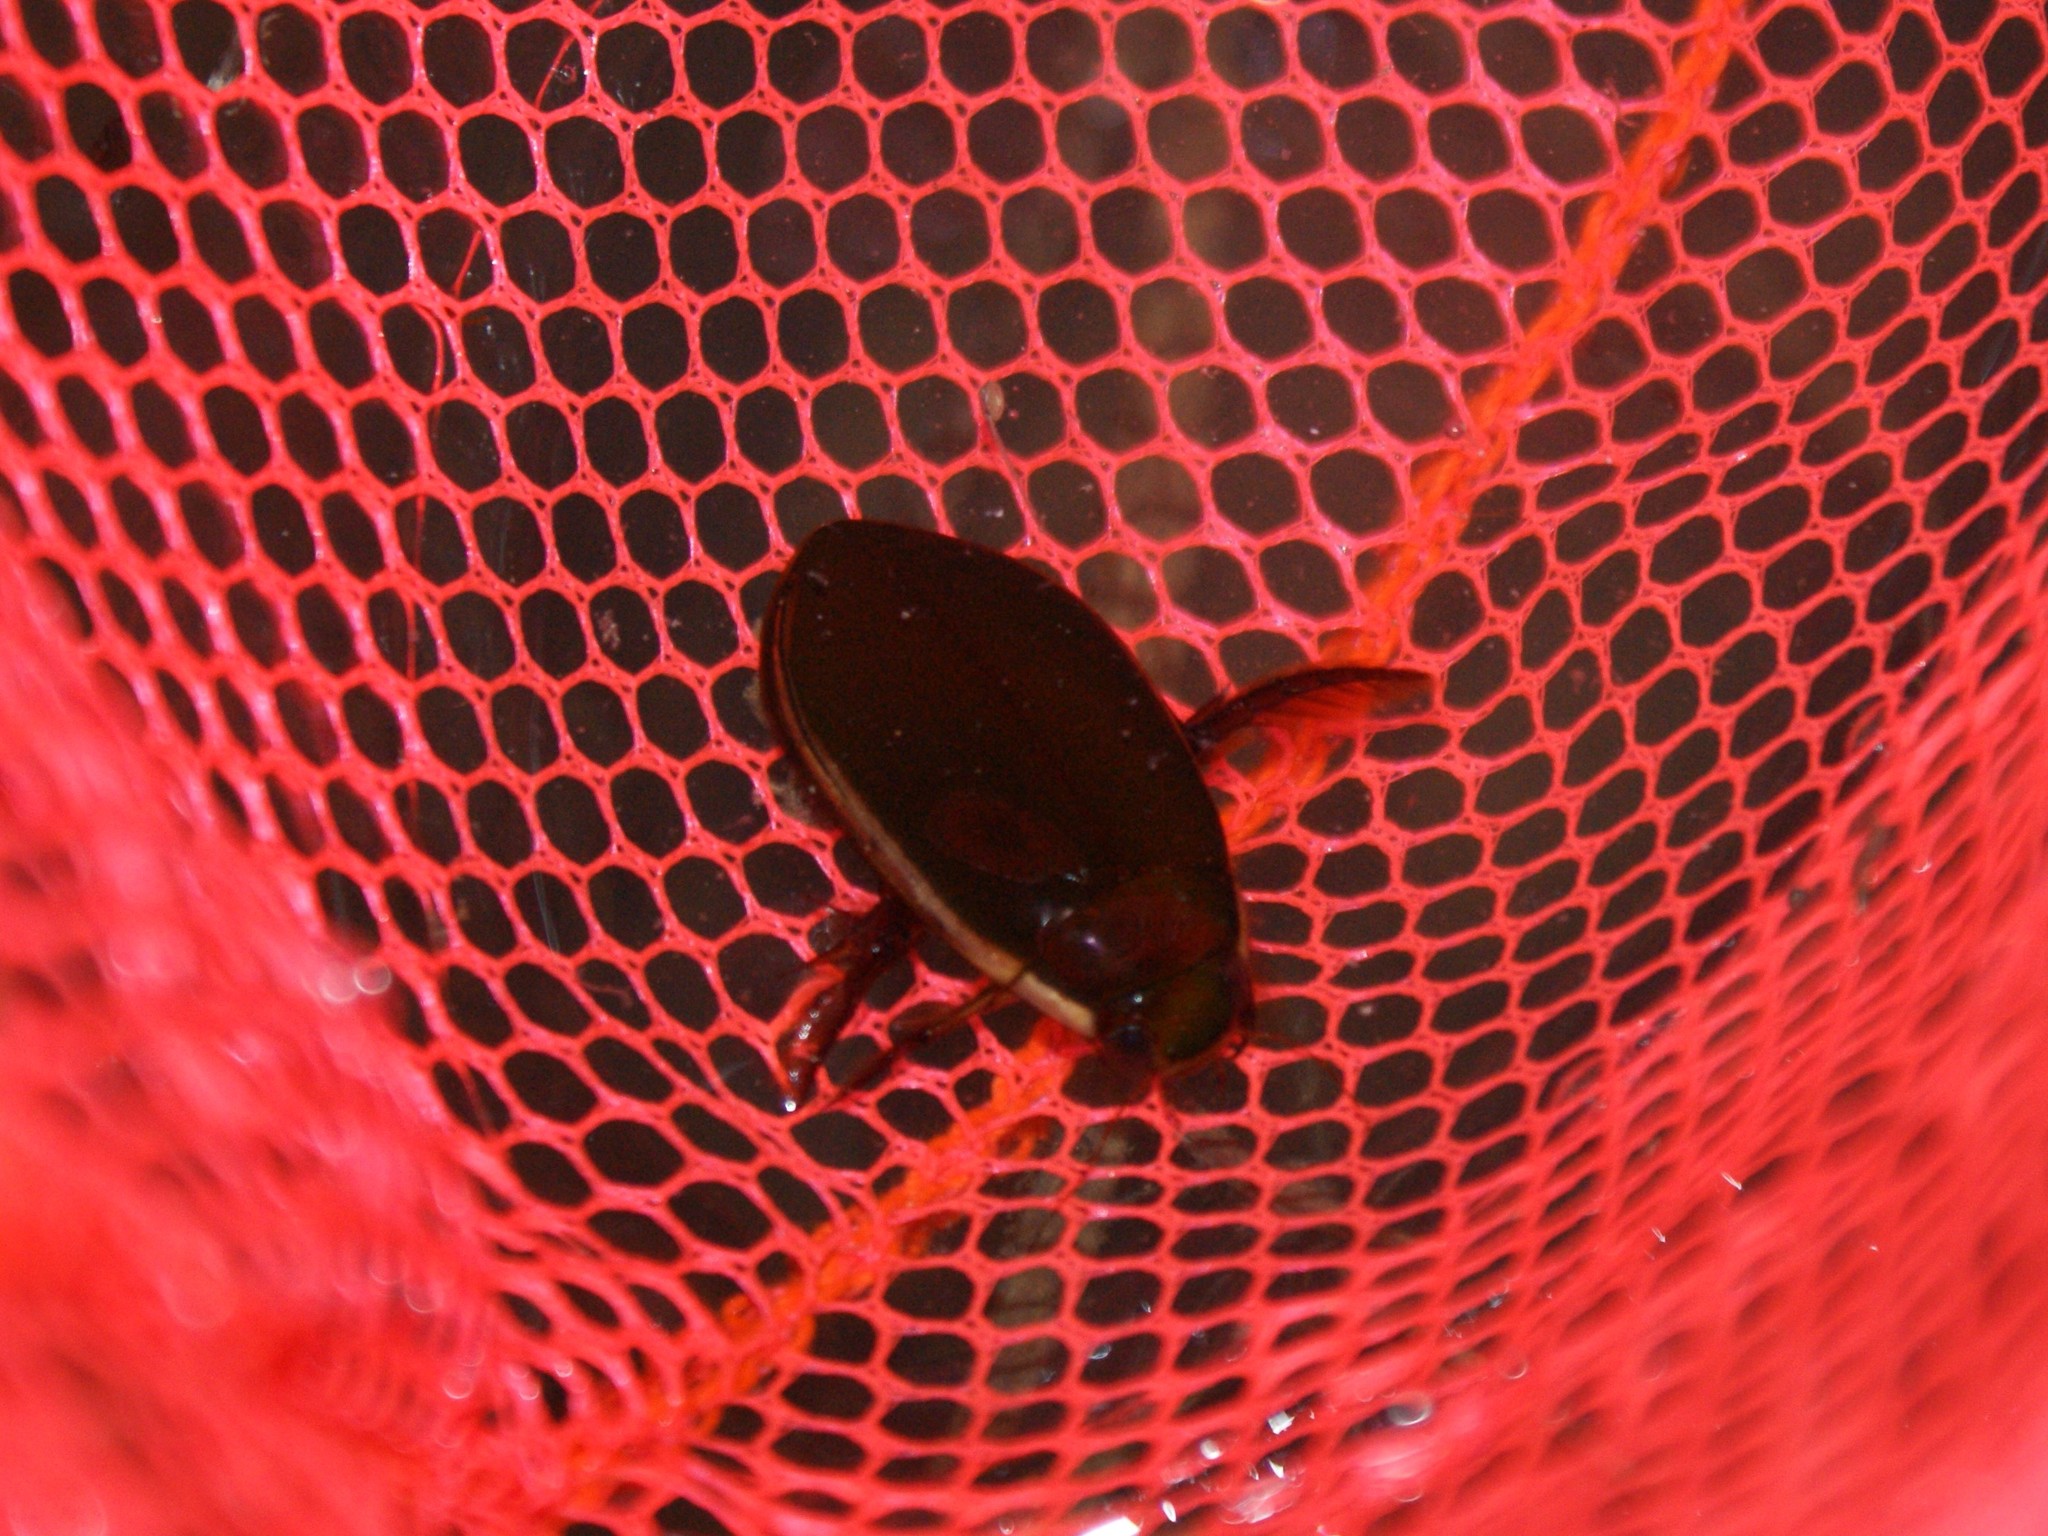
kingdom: Animalia
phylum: Arthropoda
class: Insecta
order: Coleoptera
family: Dytiscidae
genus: Cybister
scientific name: Cybister fimbriolatus
